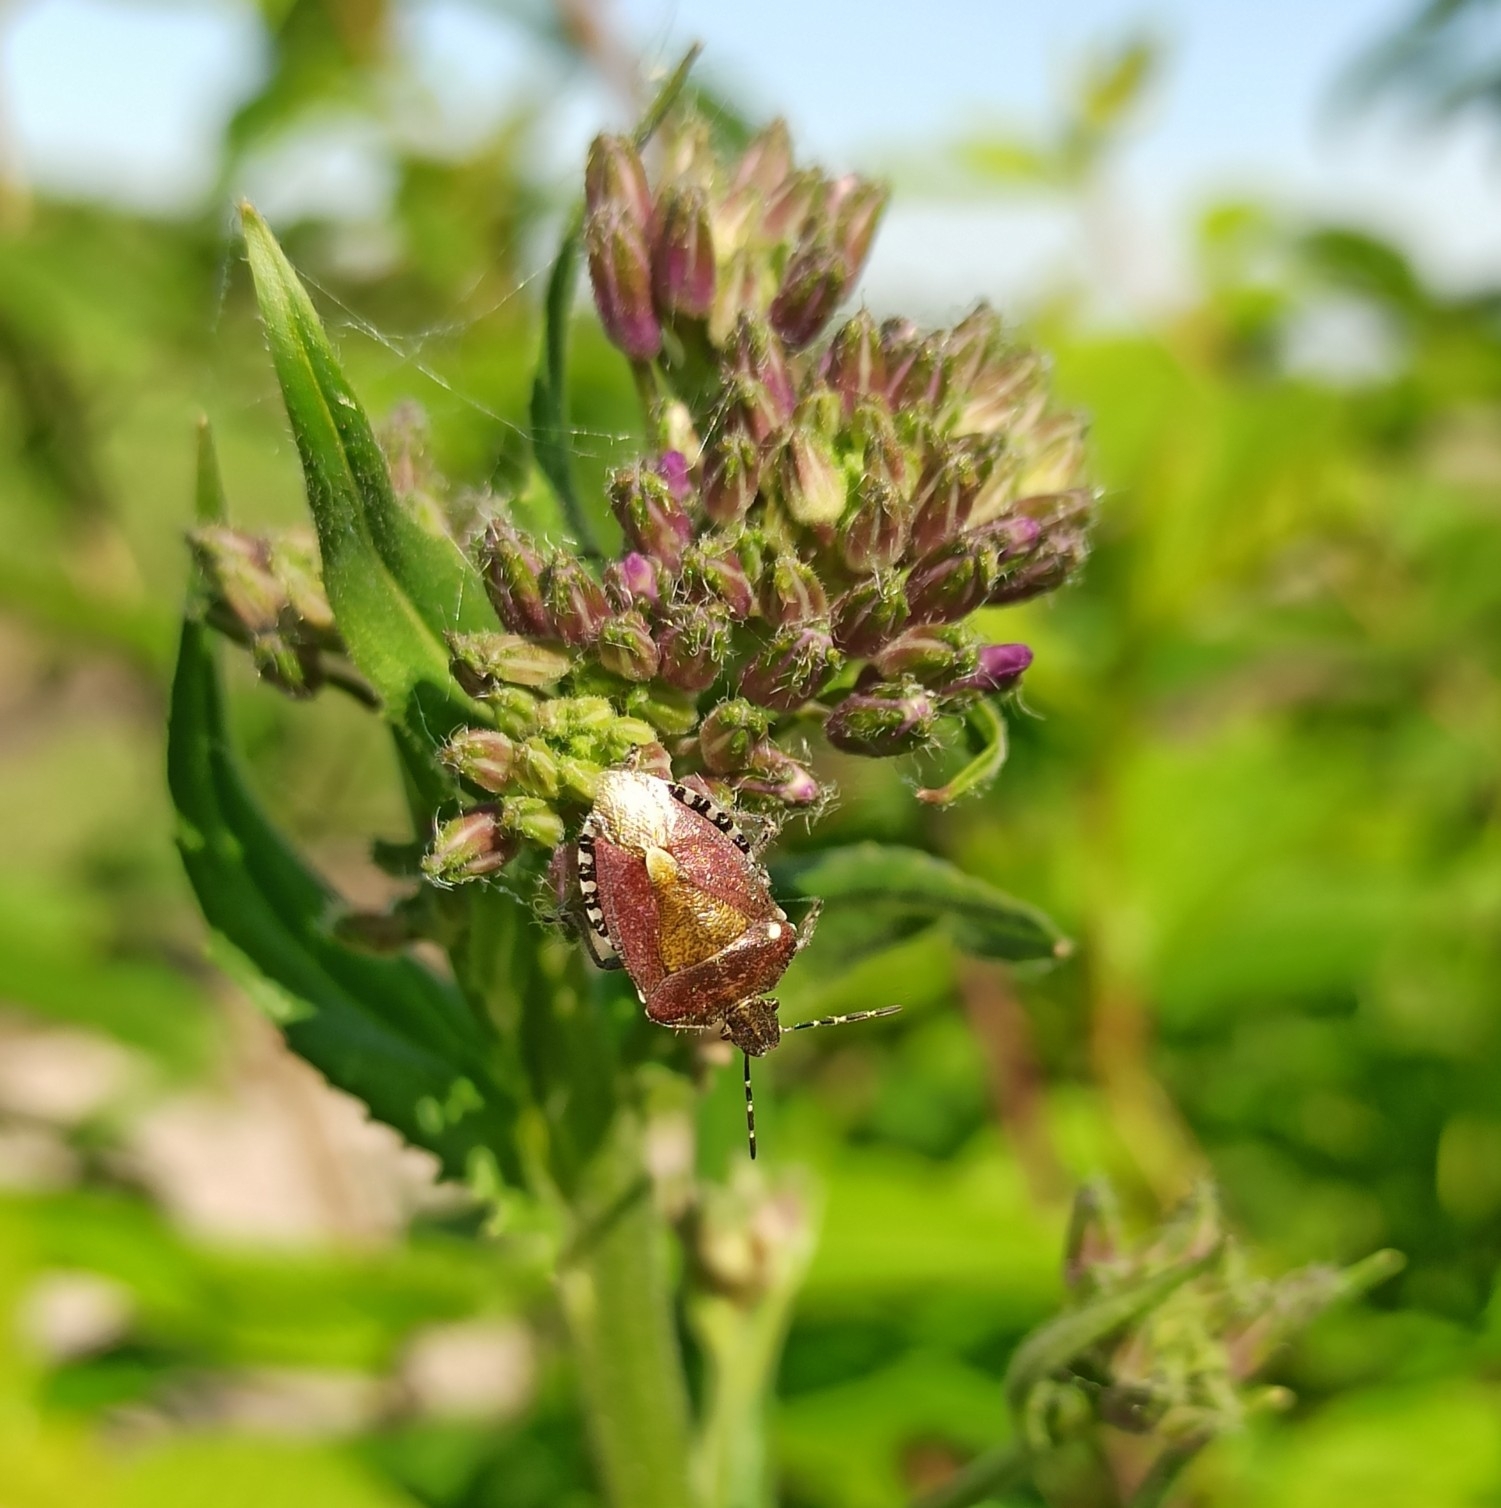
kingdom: Animalia
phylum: Arthropoda
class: Insecta
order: Hemiptera
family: Pentatomidae
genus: Dolycoris
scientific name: Dolycoris baccarum
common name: Sloe bug
